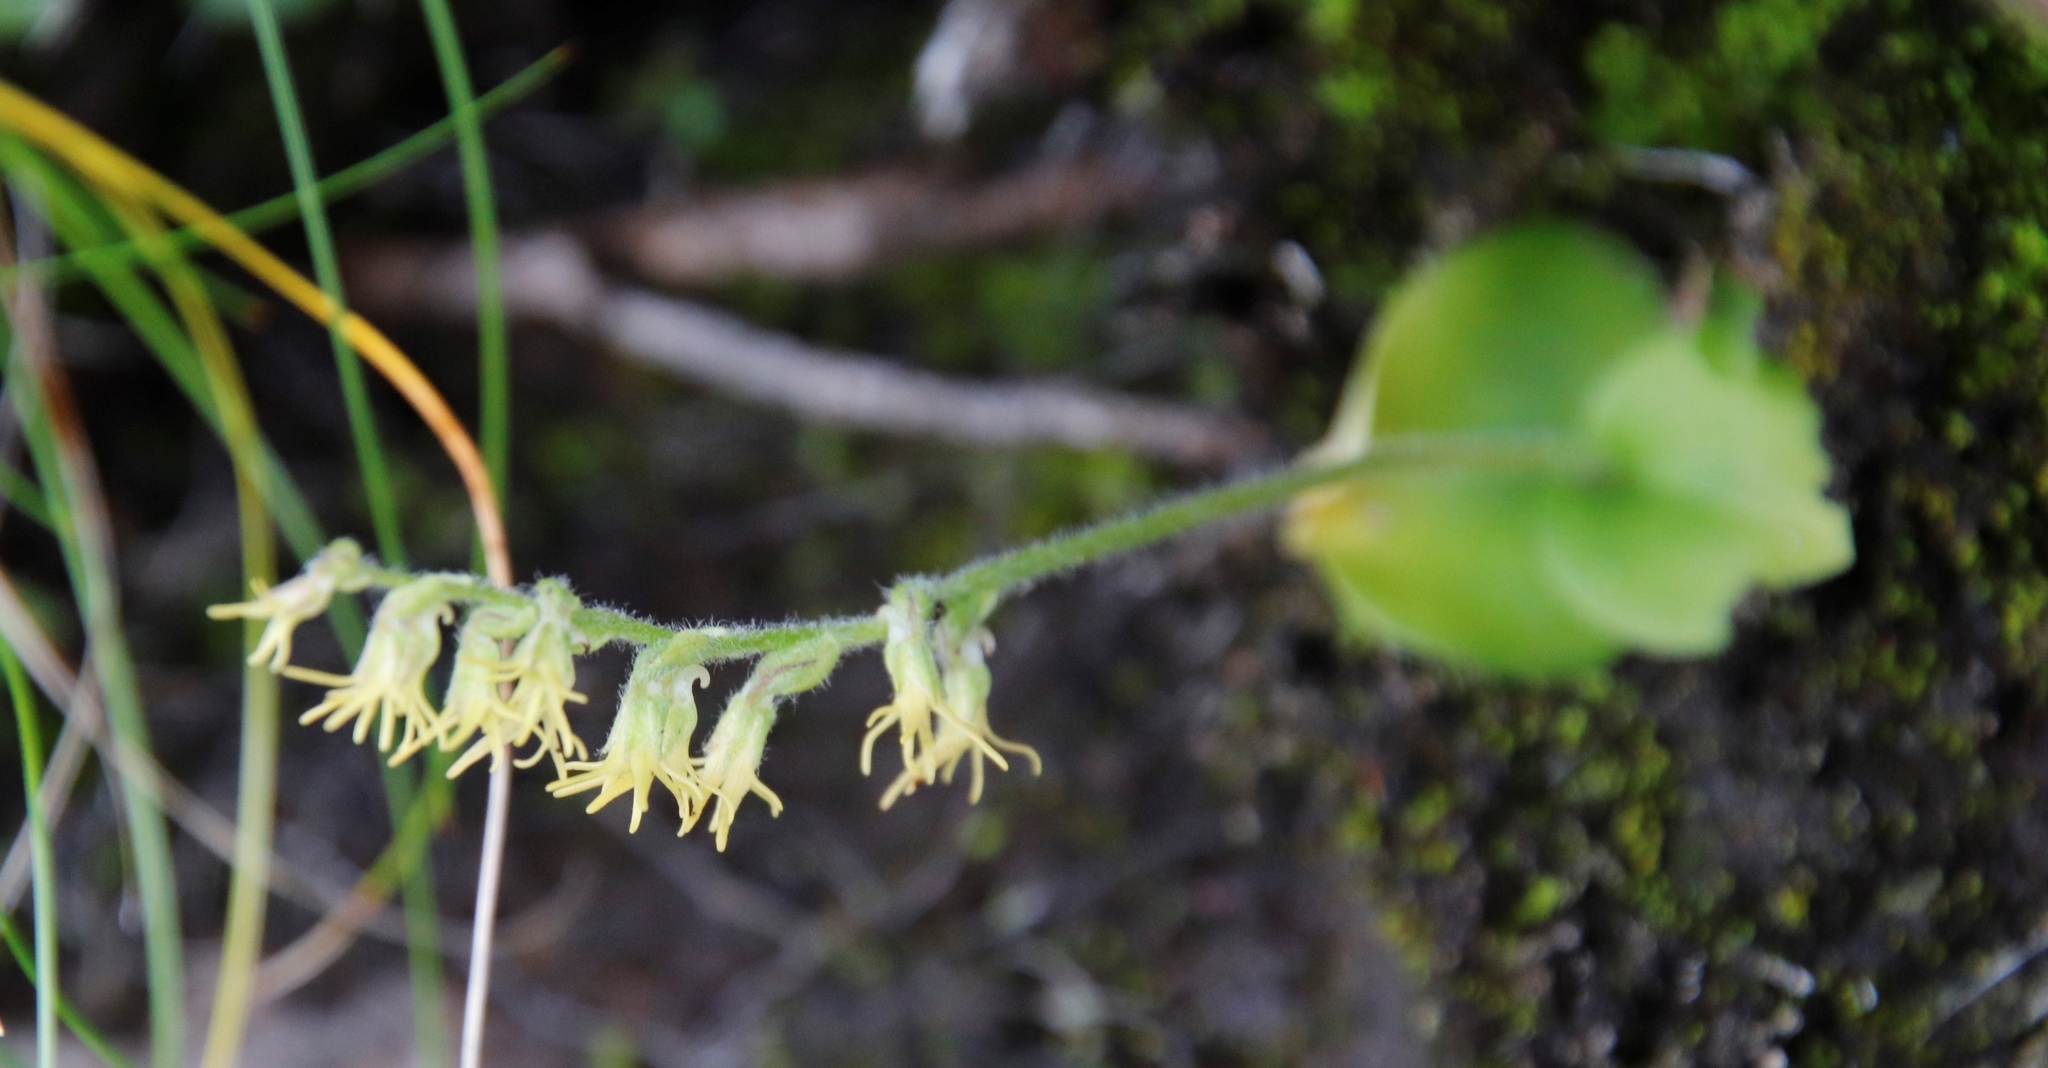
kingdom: Plantae
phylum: Tracheophyta
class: Liliopsida
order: Asparagales
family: Orchidaceae
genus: Holothrix
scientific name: Holothrix incurva
